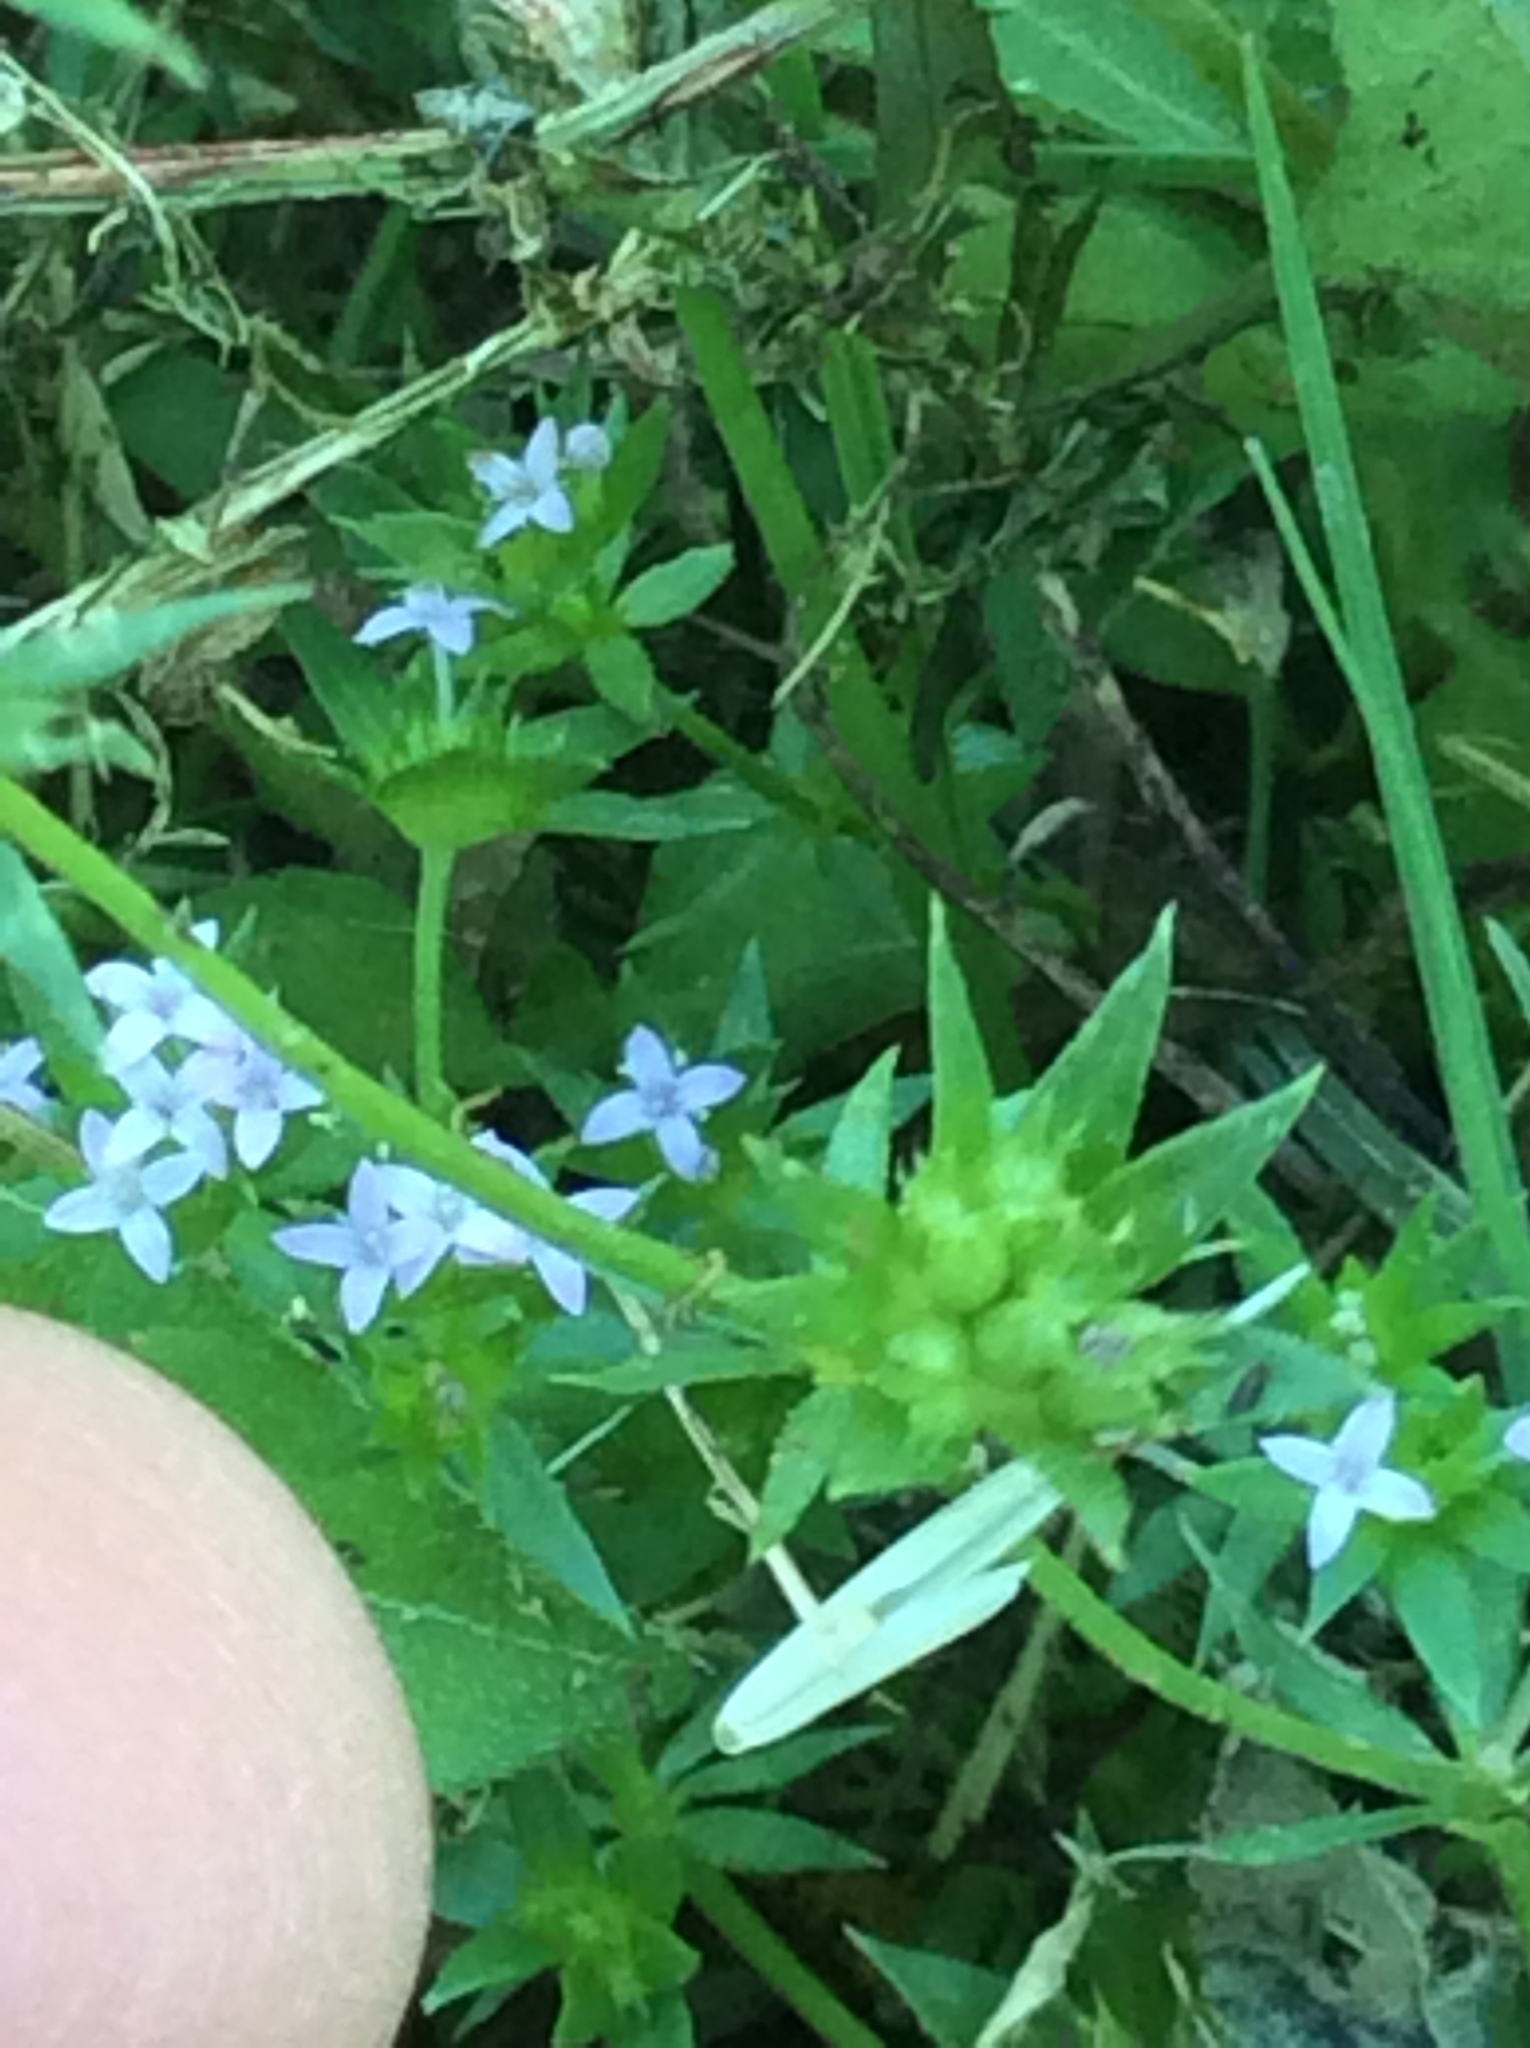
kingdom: Plantae
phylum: Tracheophyta
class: Magnoliopsida
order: Gentianales
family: Rubiaceae
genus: Sherardia
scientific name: Sherardia arvensis
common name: Field madder
